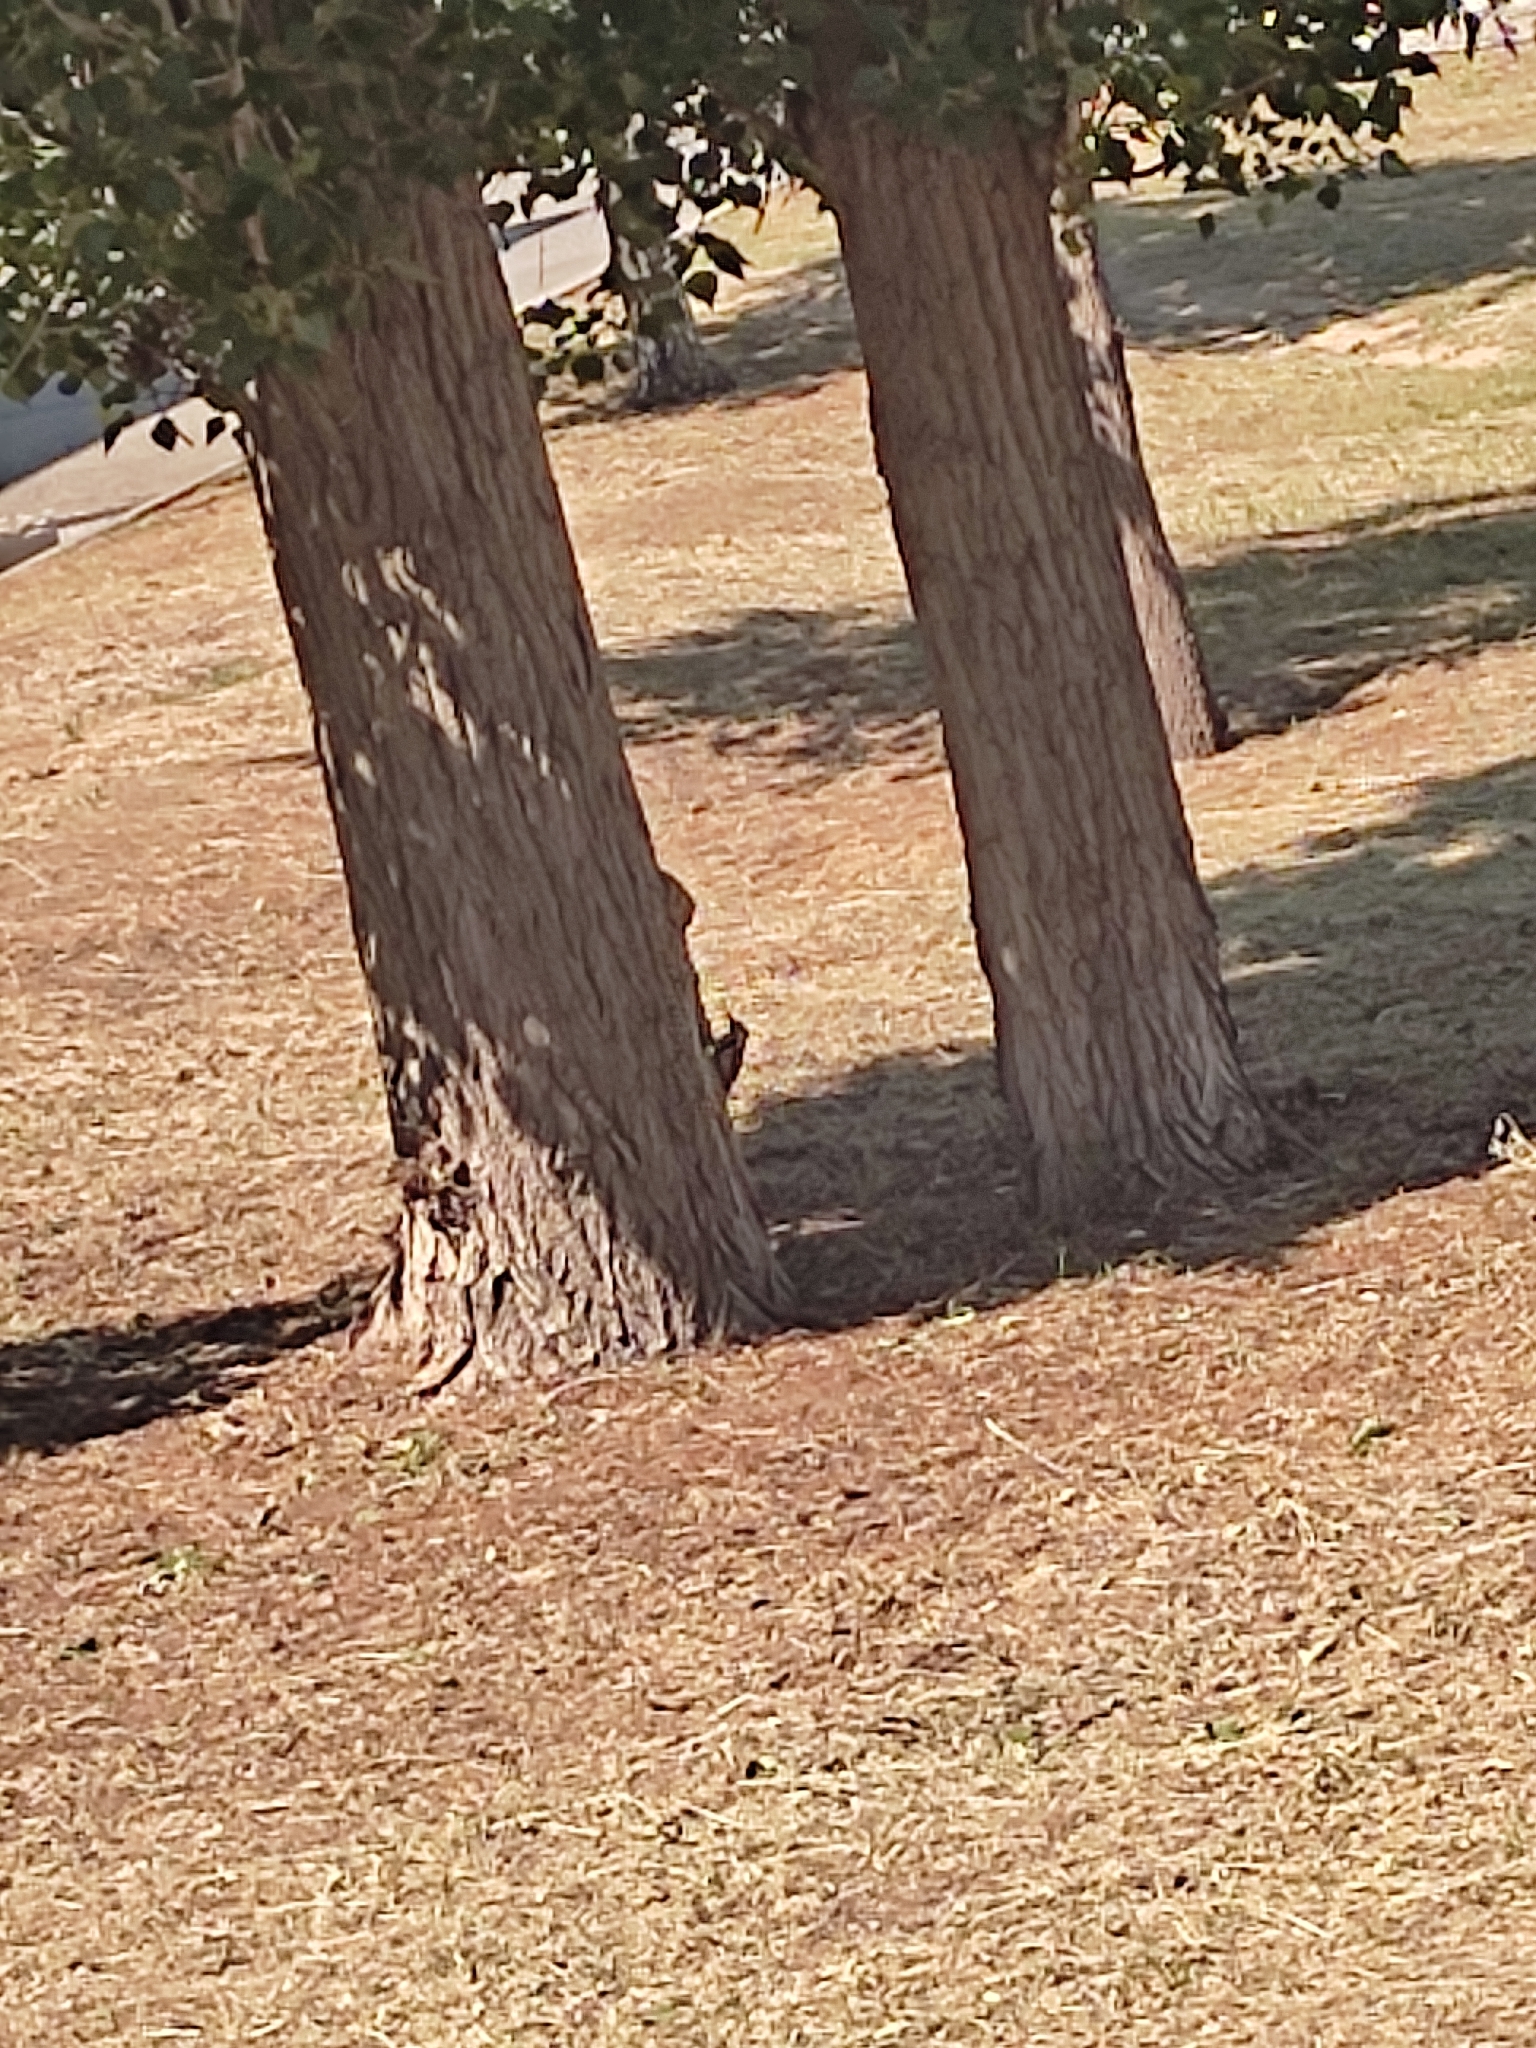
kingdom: Animalia
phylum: Chordata
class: Aves
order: Piciformes
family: Picidae
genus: Dendrocopos
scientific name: Dendrocopos syriacus
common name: Syrian woodpecker
